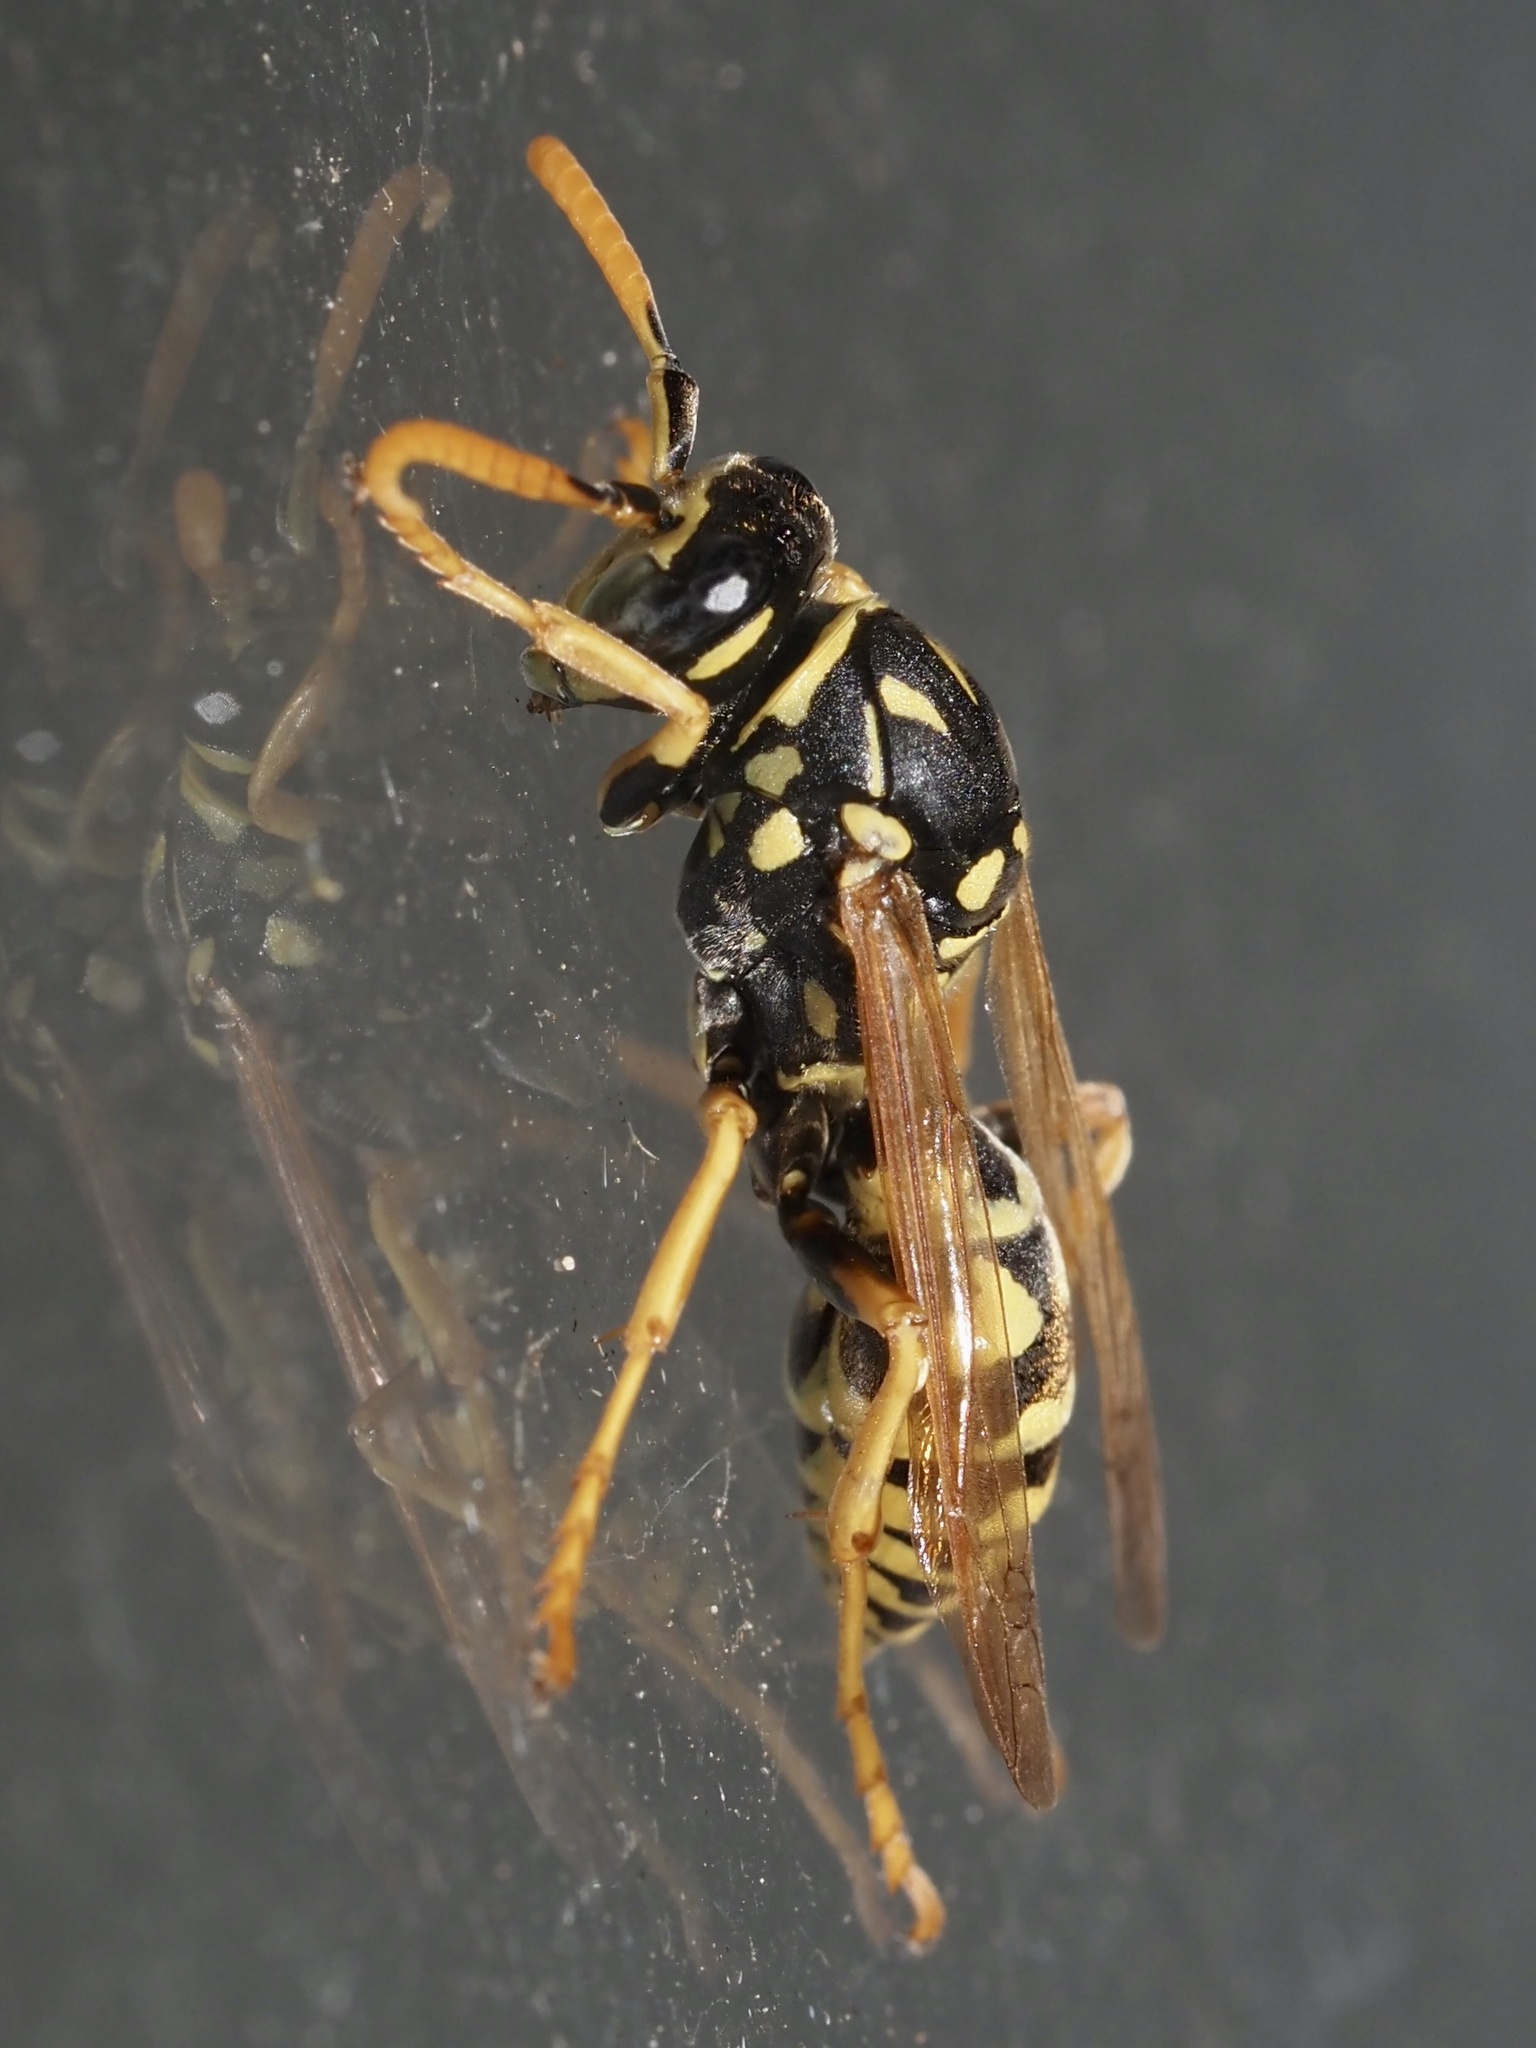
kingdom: Animalia
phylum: Arthropoda
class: Insecta
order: Hymenoptera
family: Eumenidae
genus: Polistes
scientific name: Polistes dominula
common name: Paper wasp
